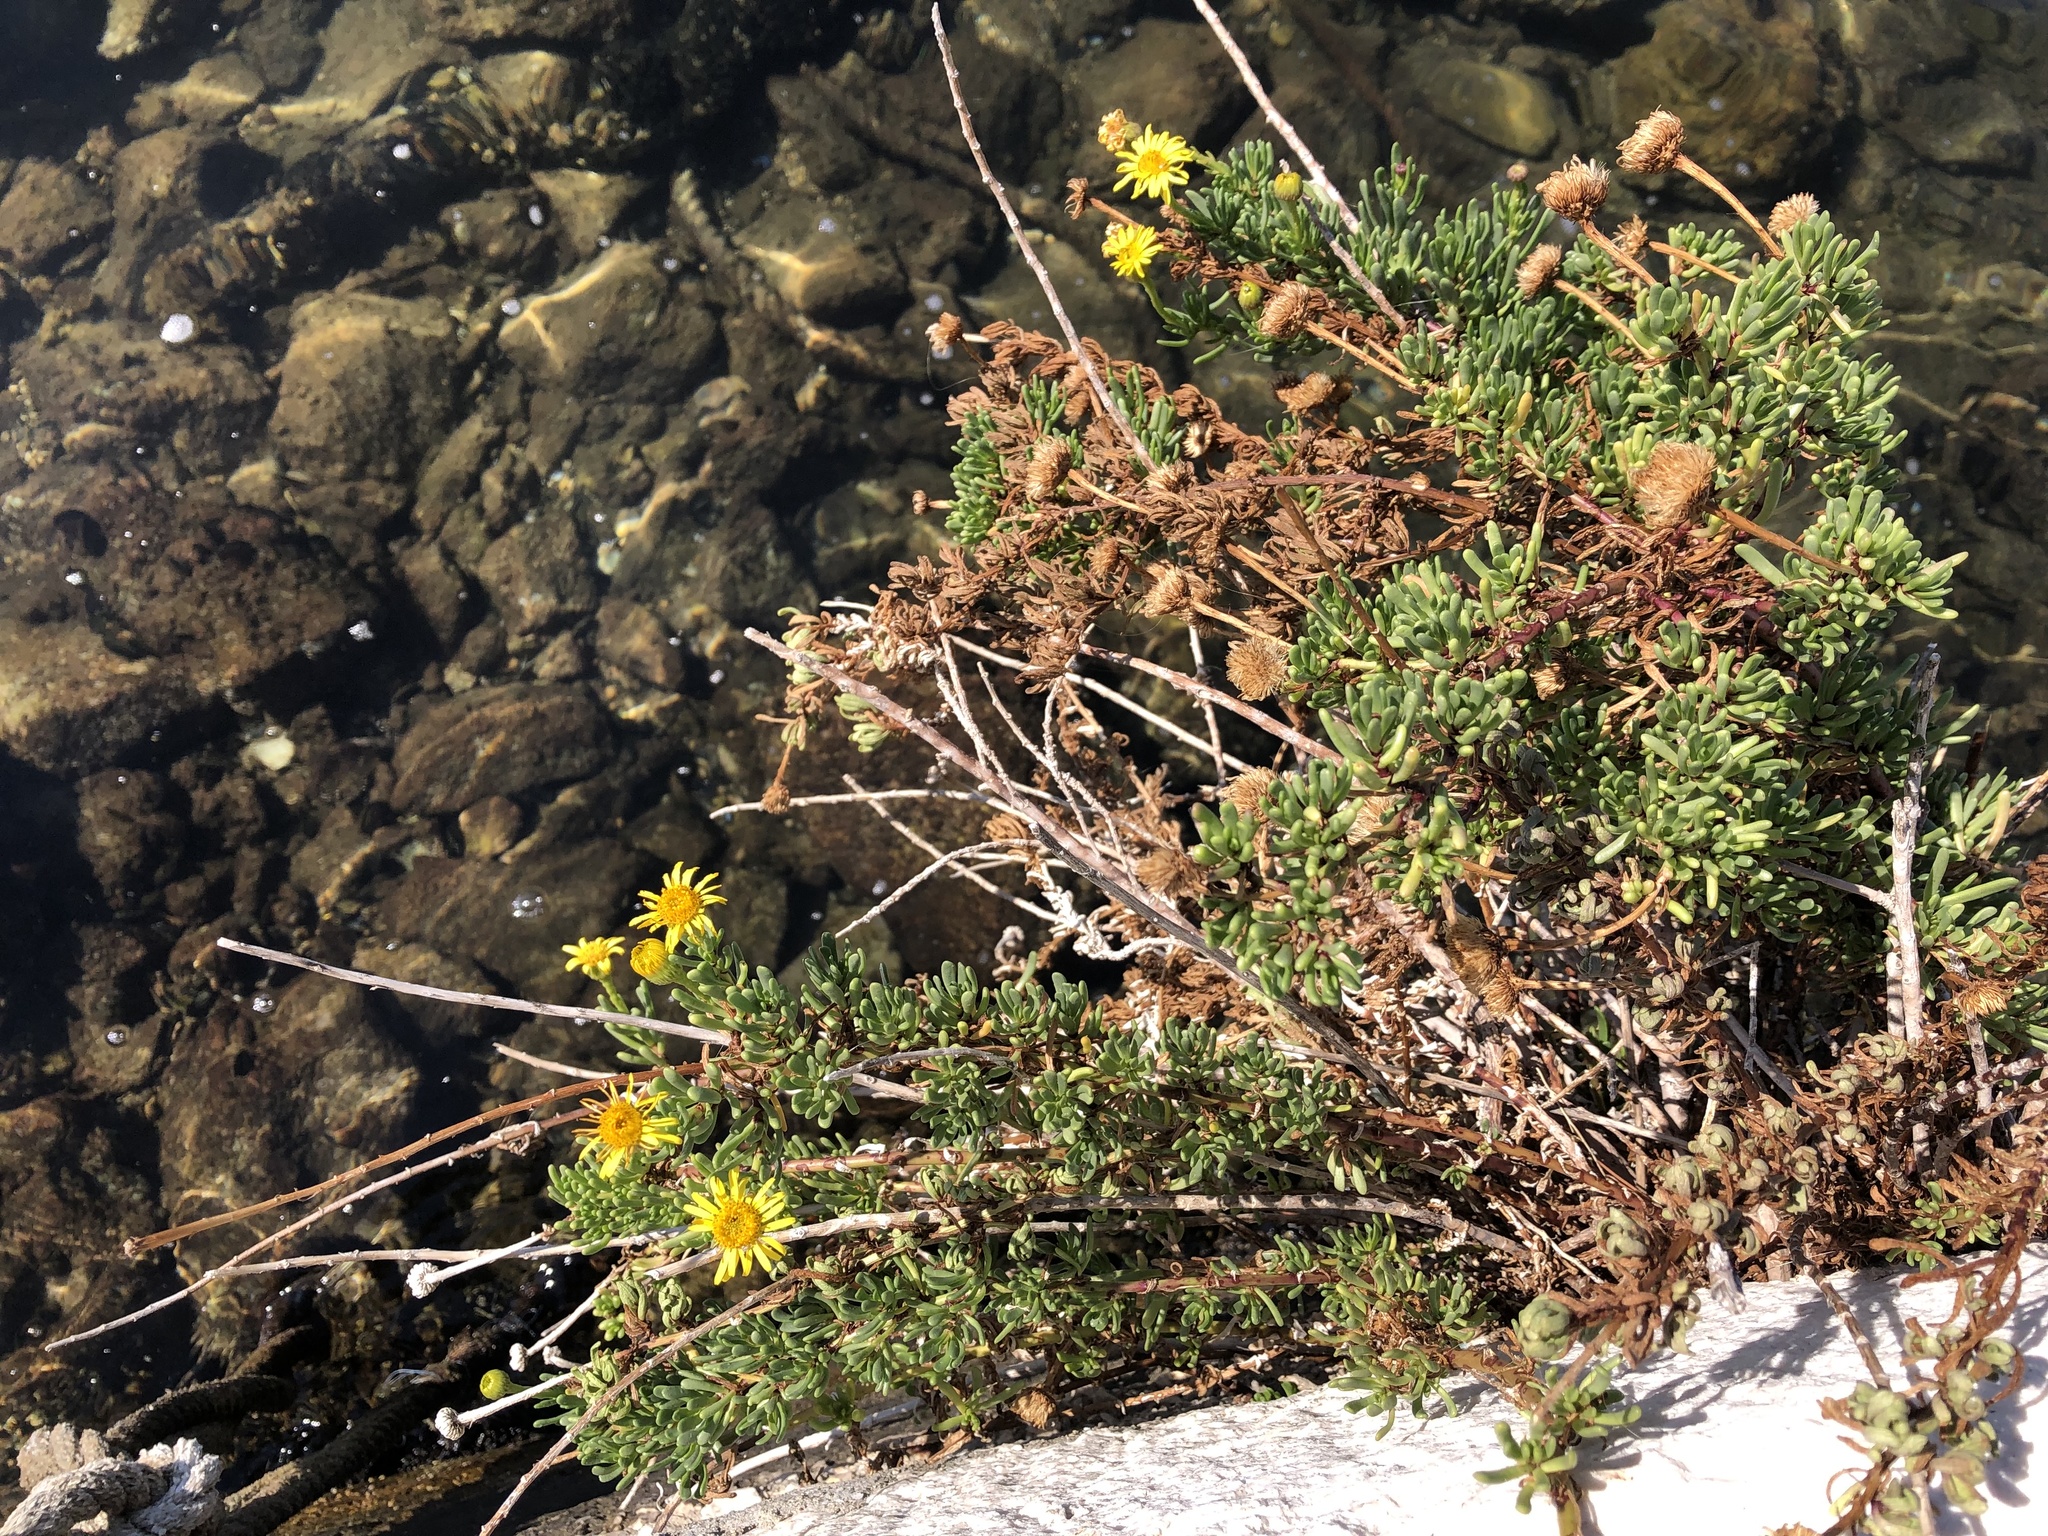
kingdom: Plantae
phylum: Tracheophyta
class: Magnoliopsida
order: Asterales
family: Asteraceae
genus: Limbarda
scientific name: Limbarda crithmoides
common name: Golden samphire
